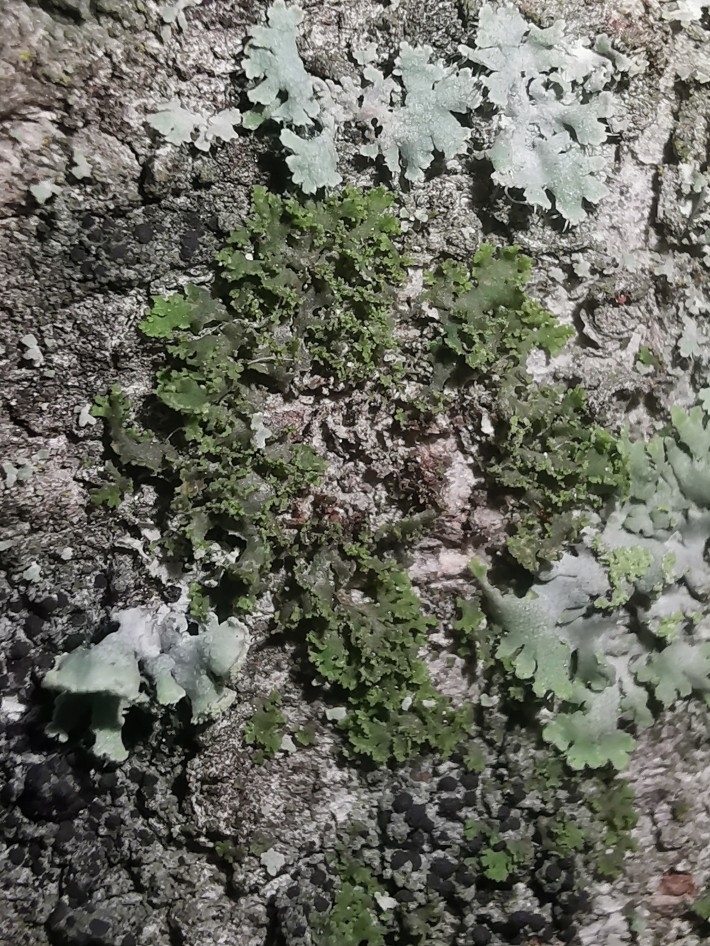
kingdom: Fungi
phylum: Ascomycota
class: Lecanoromycetes
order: Caliciales
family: Physciaceae
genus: Physciella
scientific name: Physciella nigricans
